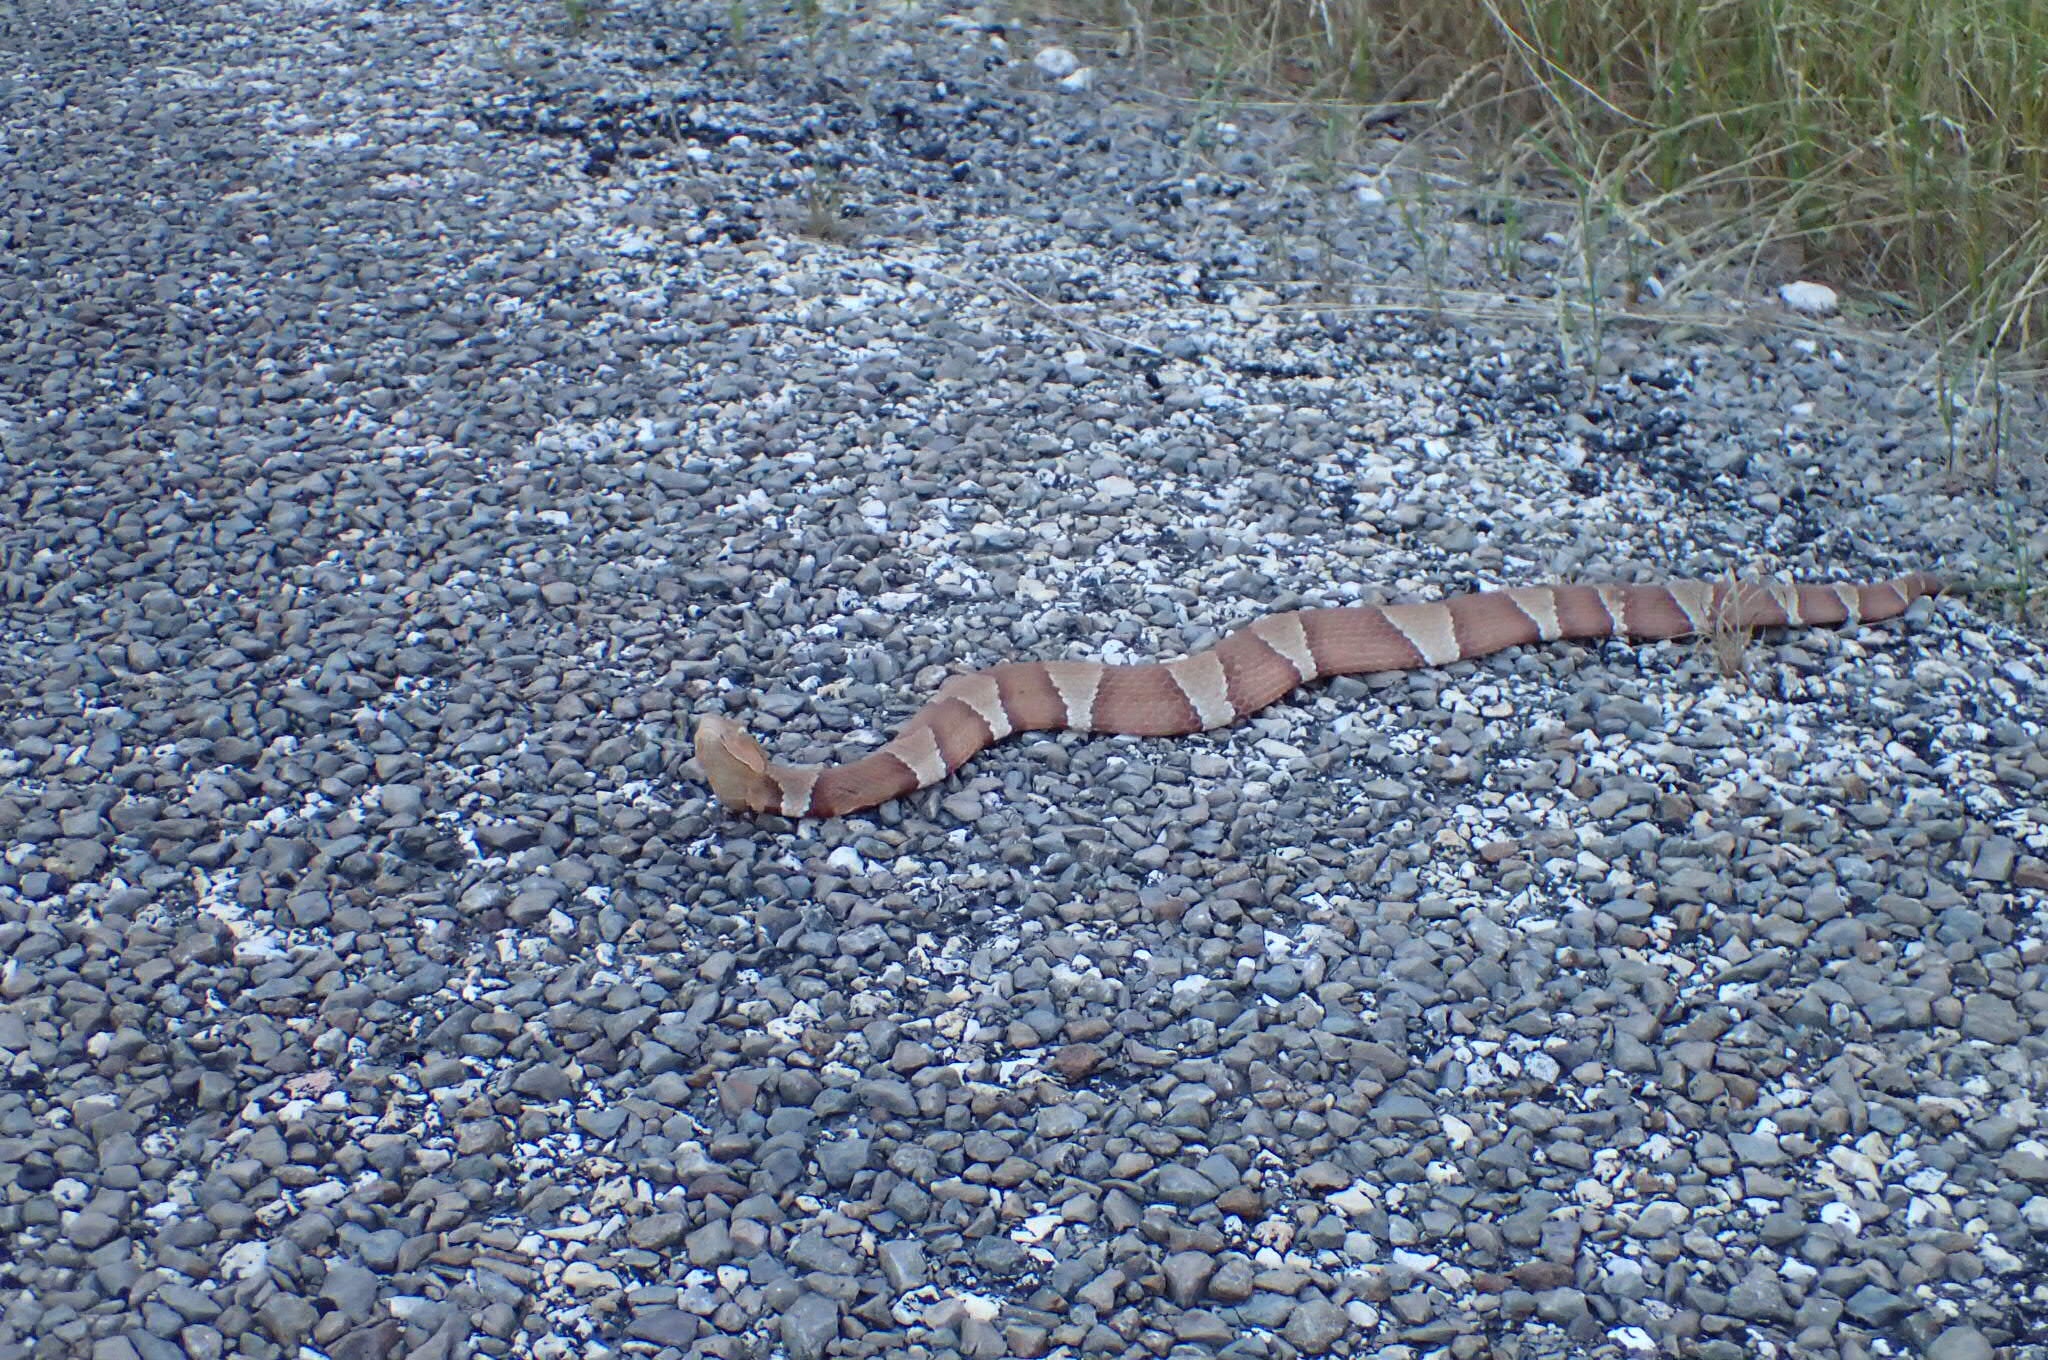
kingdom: Animalia
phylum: Chordata
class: Squamata
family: Viperidae
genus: Agkistrodon
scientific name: Agkistrodon laticinctus
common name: Broad-banded copperhead
